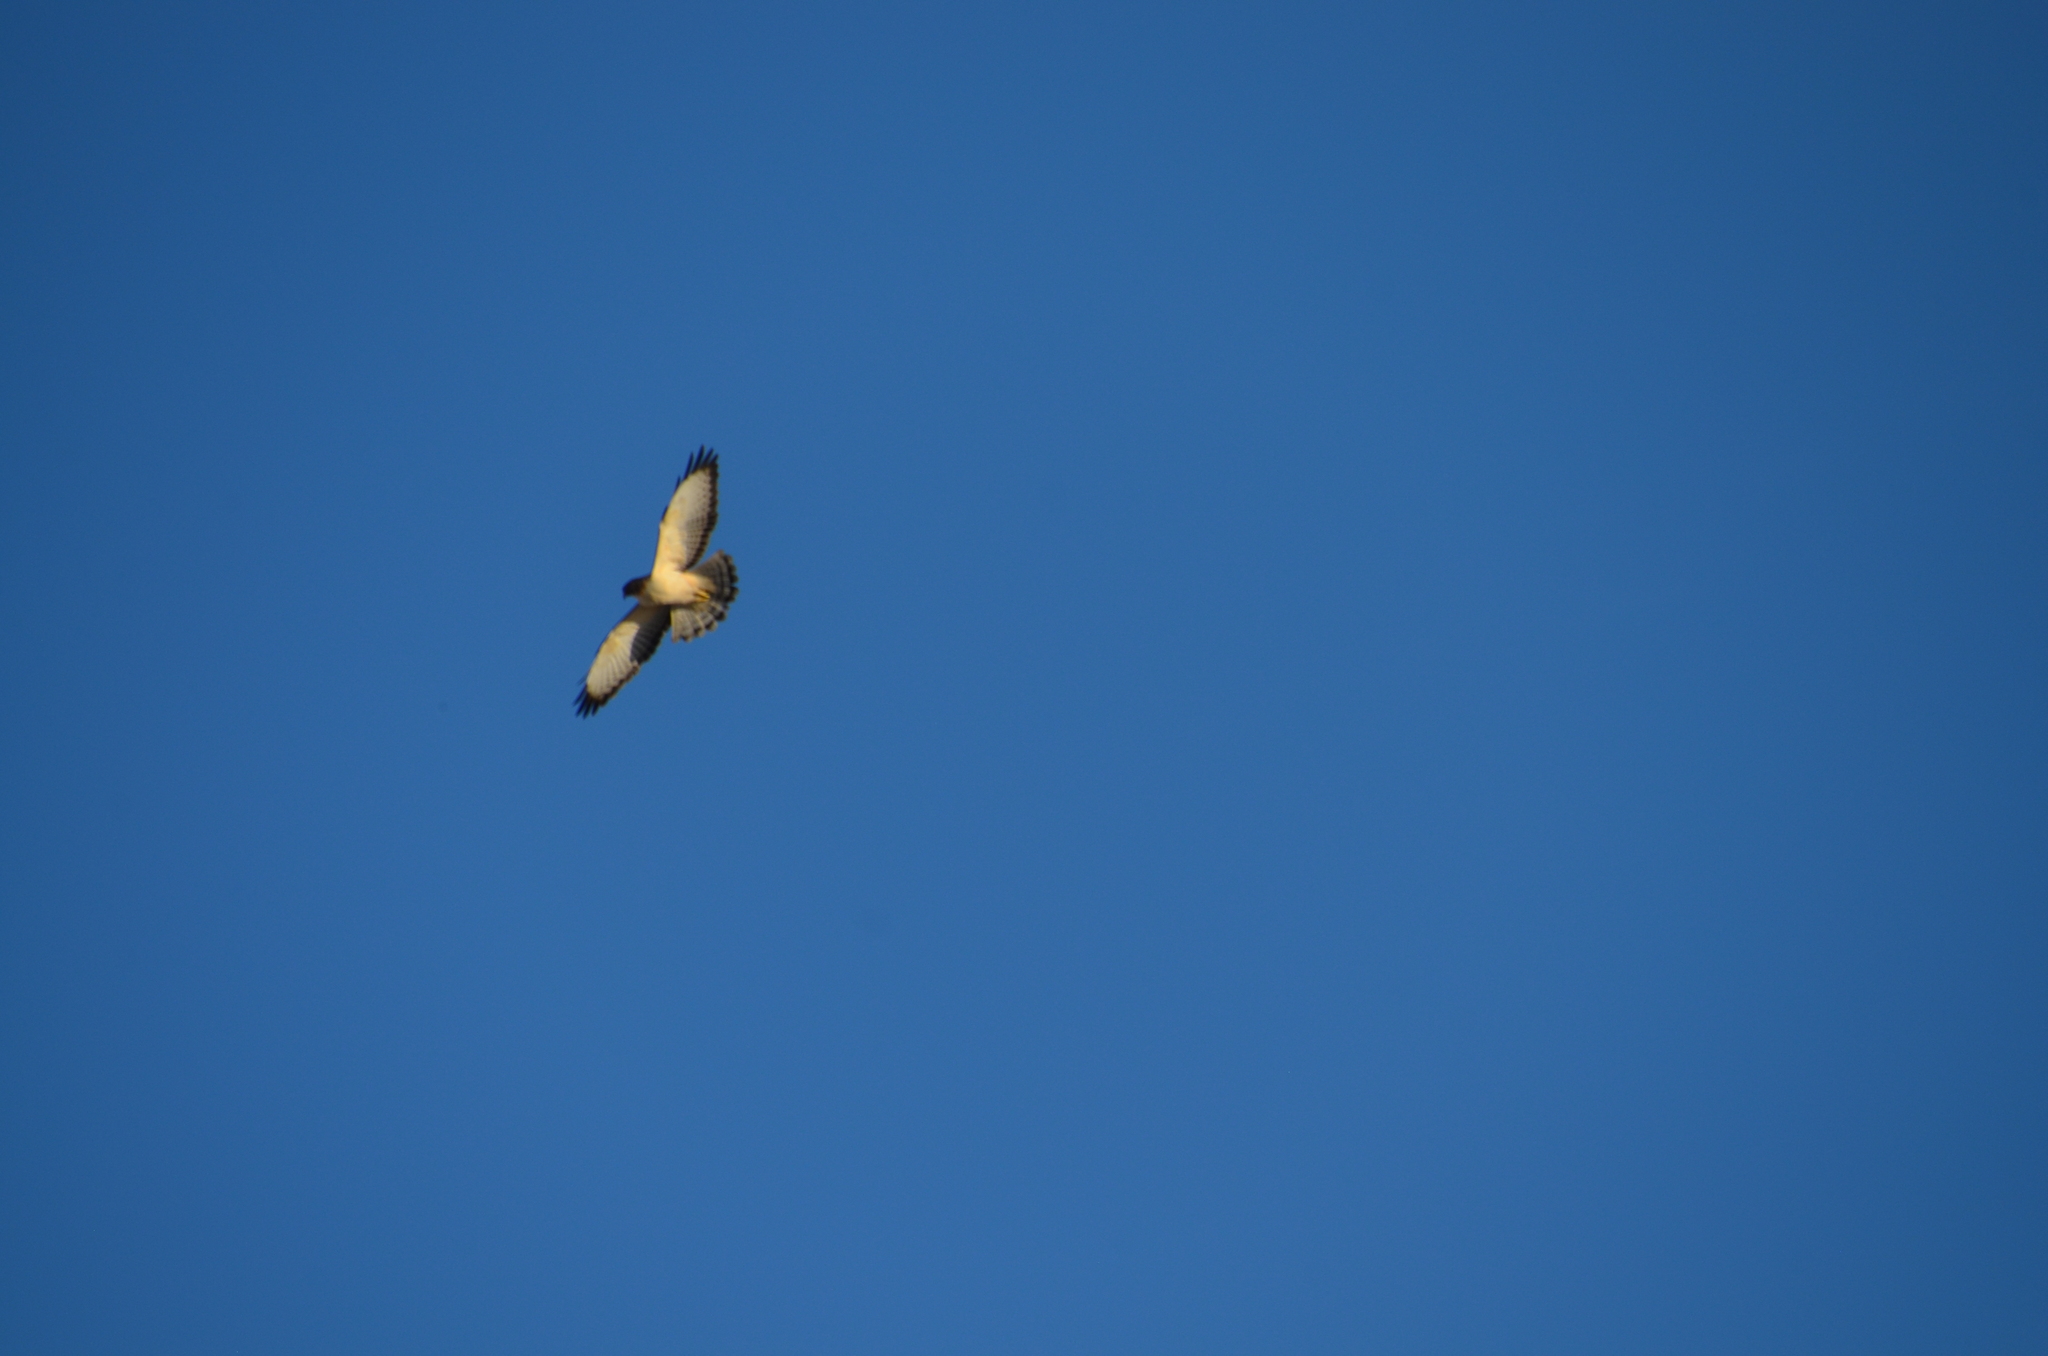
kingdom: Animalia
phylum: Chordata
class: Aves
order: Accipitriformes
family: Accipitridae
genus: Buteo
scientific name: Buteo brachyurus
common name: Short-tailed hawk
